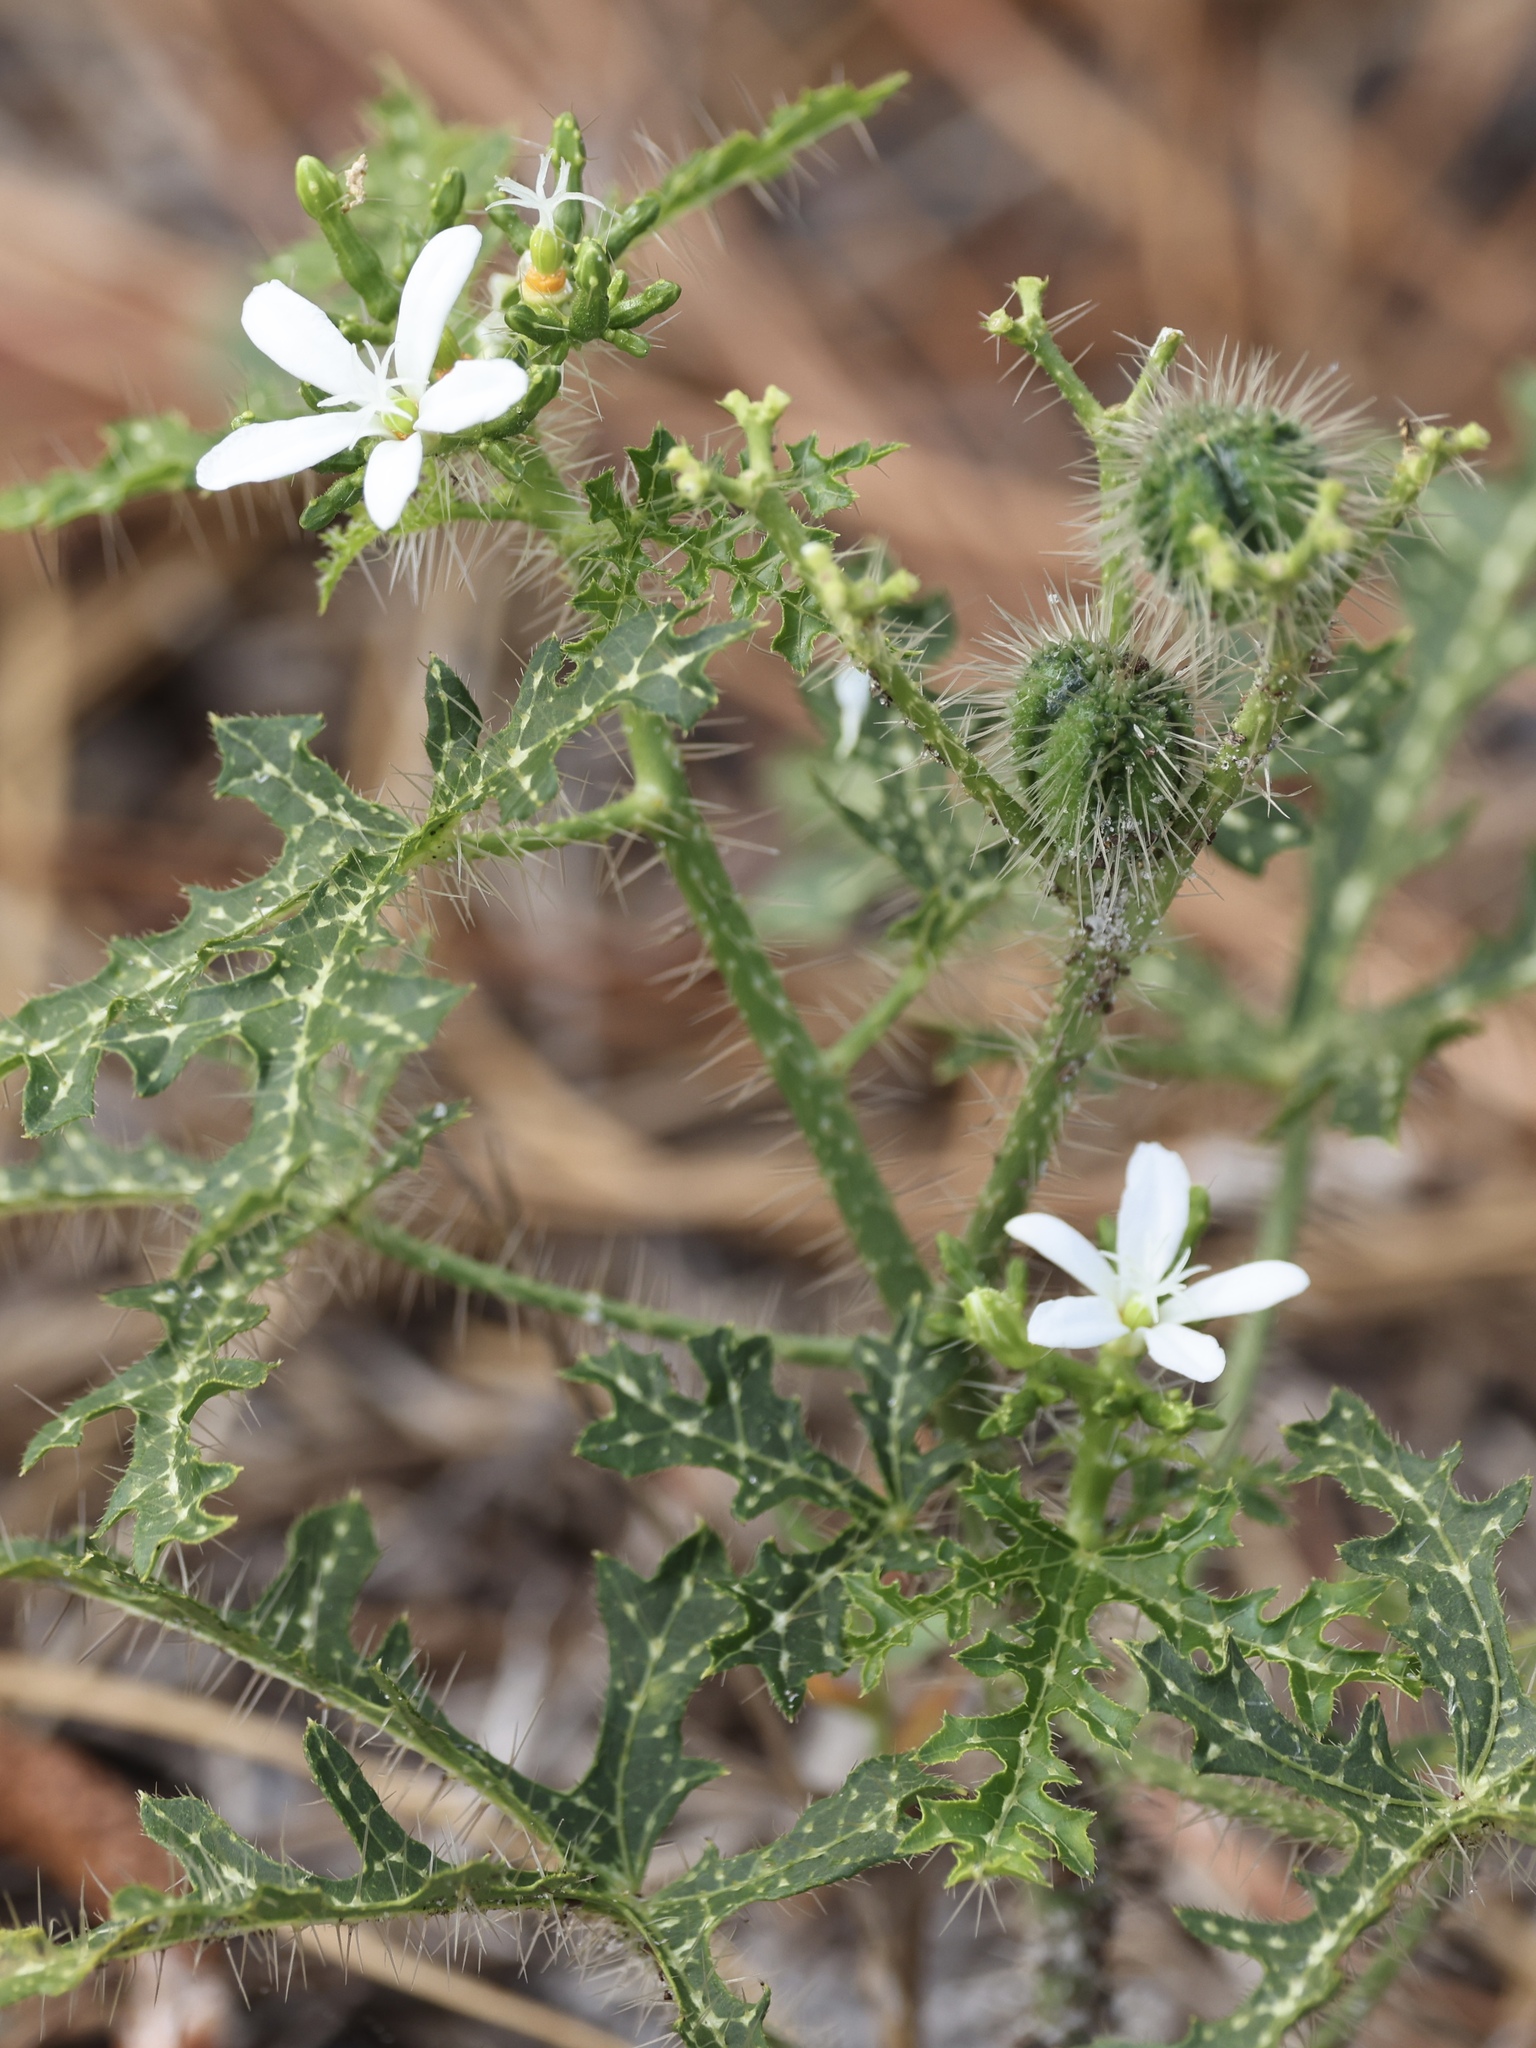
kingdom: Plantae
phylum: Tracheophyta
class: Magnoliopsida
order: Malpighiales
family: Euphorbiaceae
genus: Cnidoscolus
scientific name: Cnidoscolus stimulosus
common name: Bull-nettle
